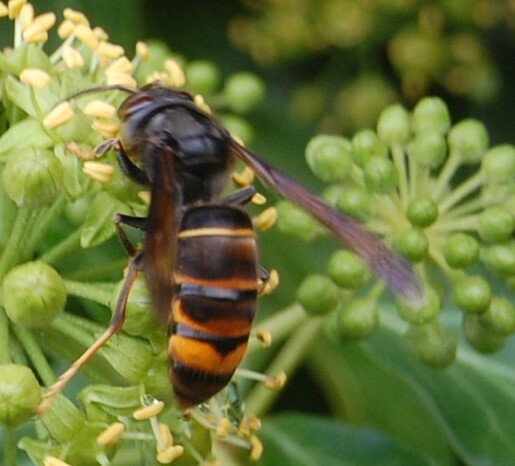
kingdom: Animalia
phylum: Arthropoda
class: Insecta
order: Hymenoptera
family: Vespidae
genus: Vespa
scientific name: Vespa velutina
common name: Asian hornet
